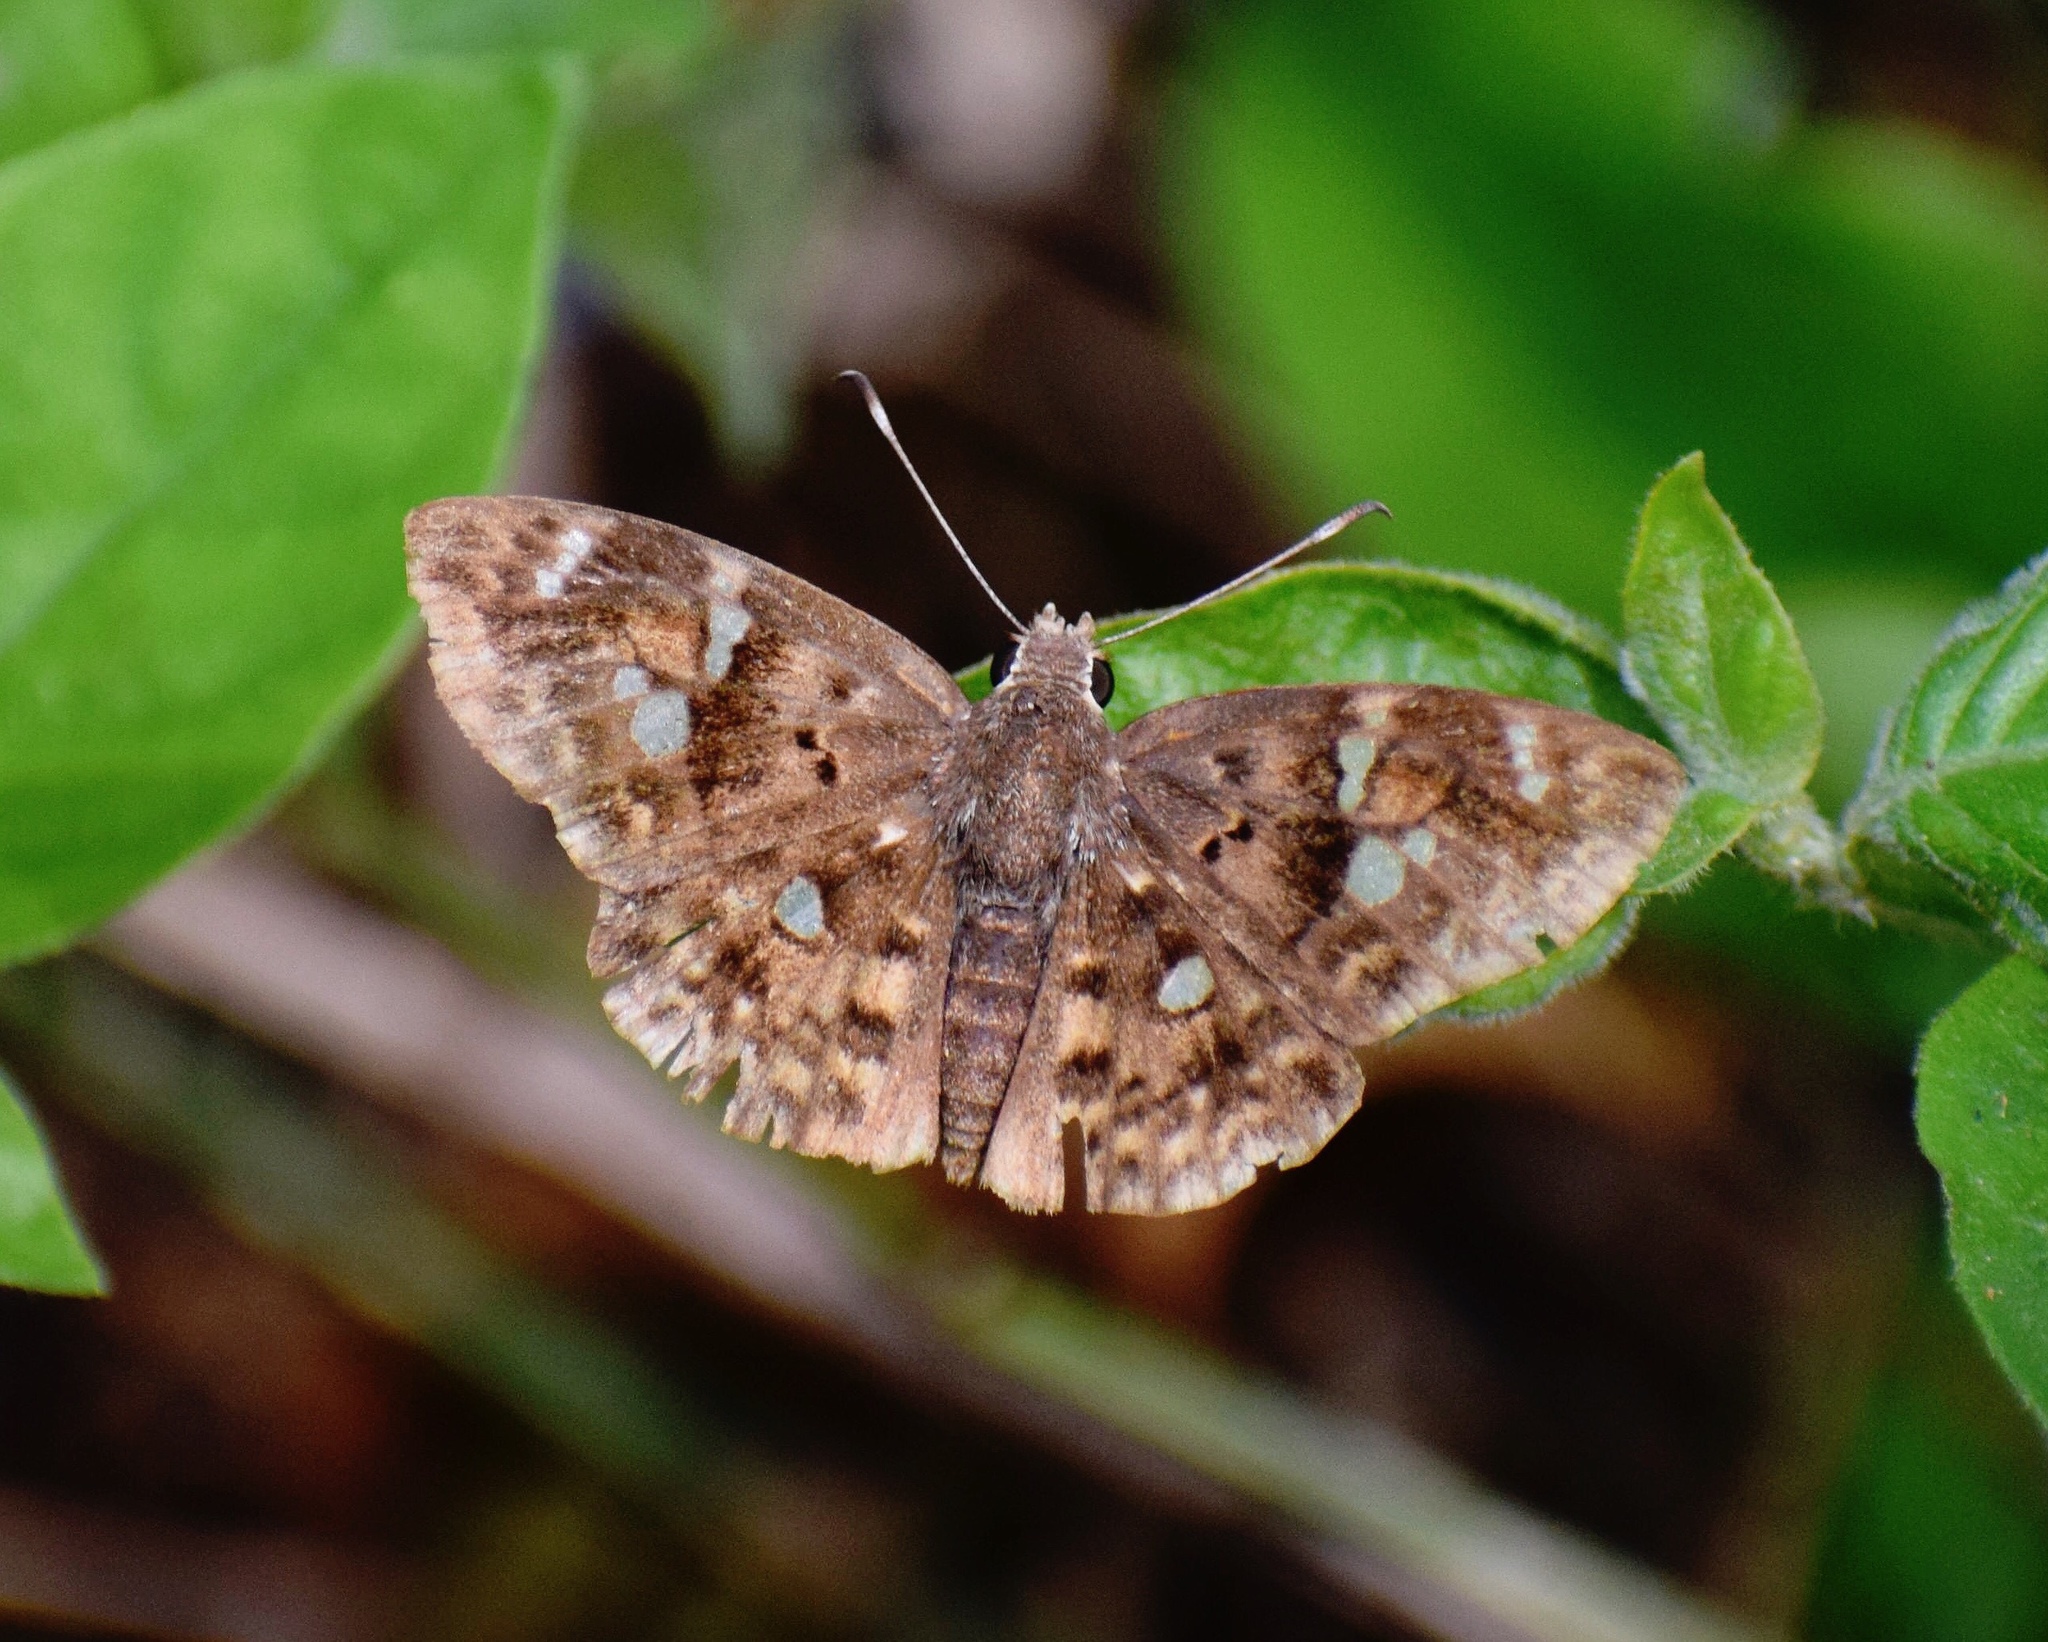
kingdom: Animalia
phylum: Arthropoda
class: Insecta
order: Lepidoptera
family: Hesperiidae
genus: Sarangesa
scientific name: Sarangesa motozi
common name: Forest elfin
